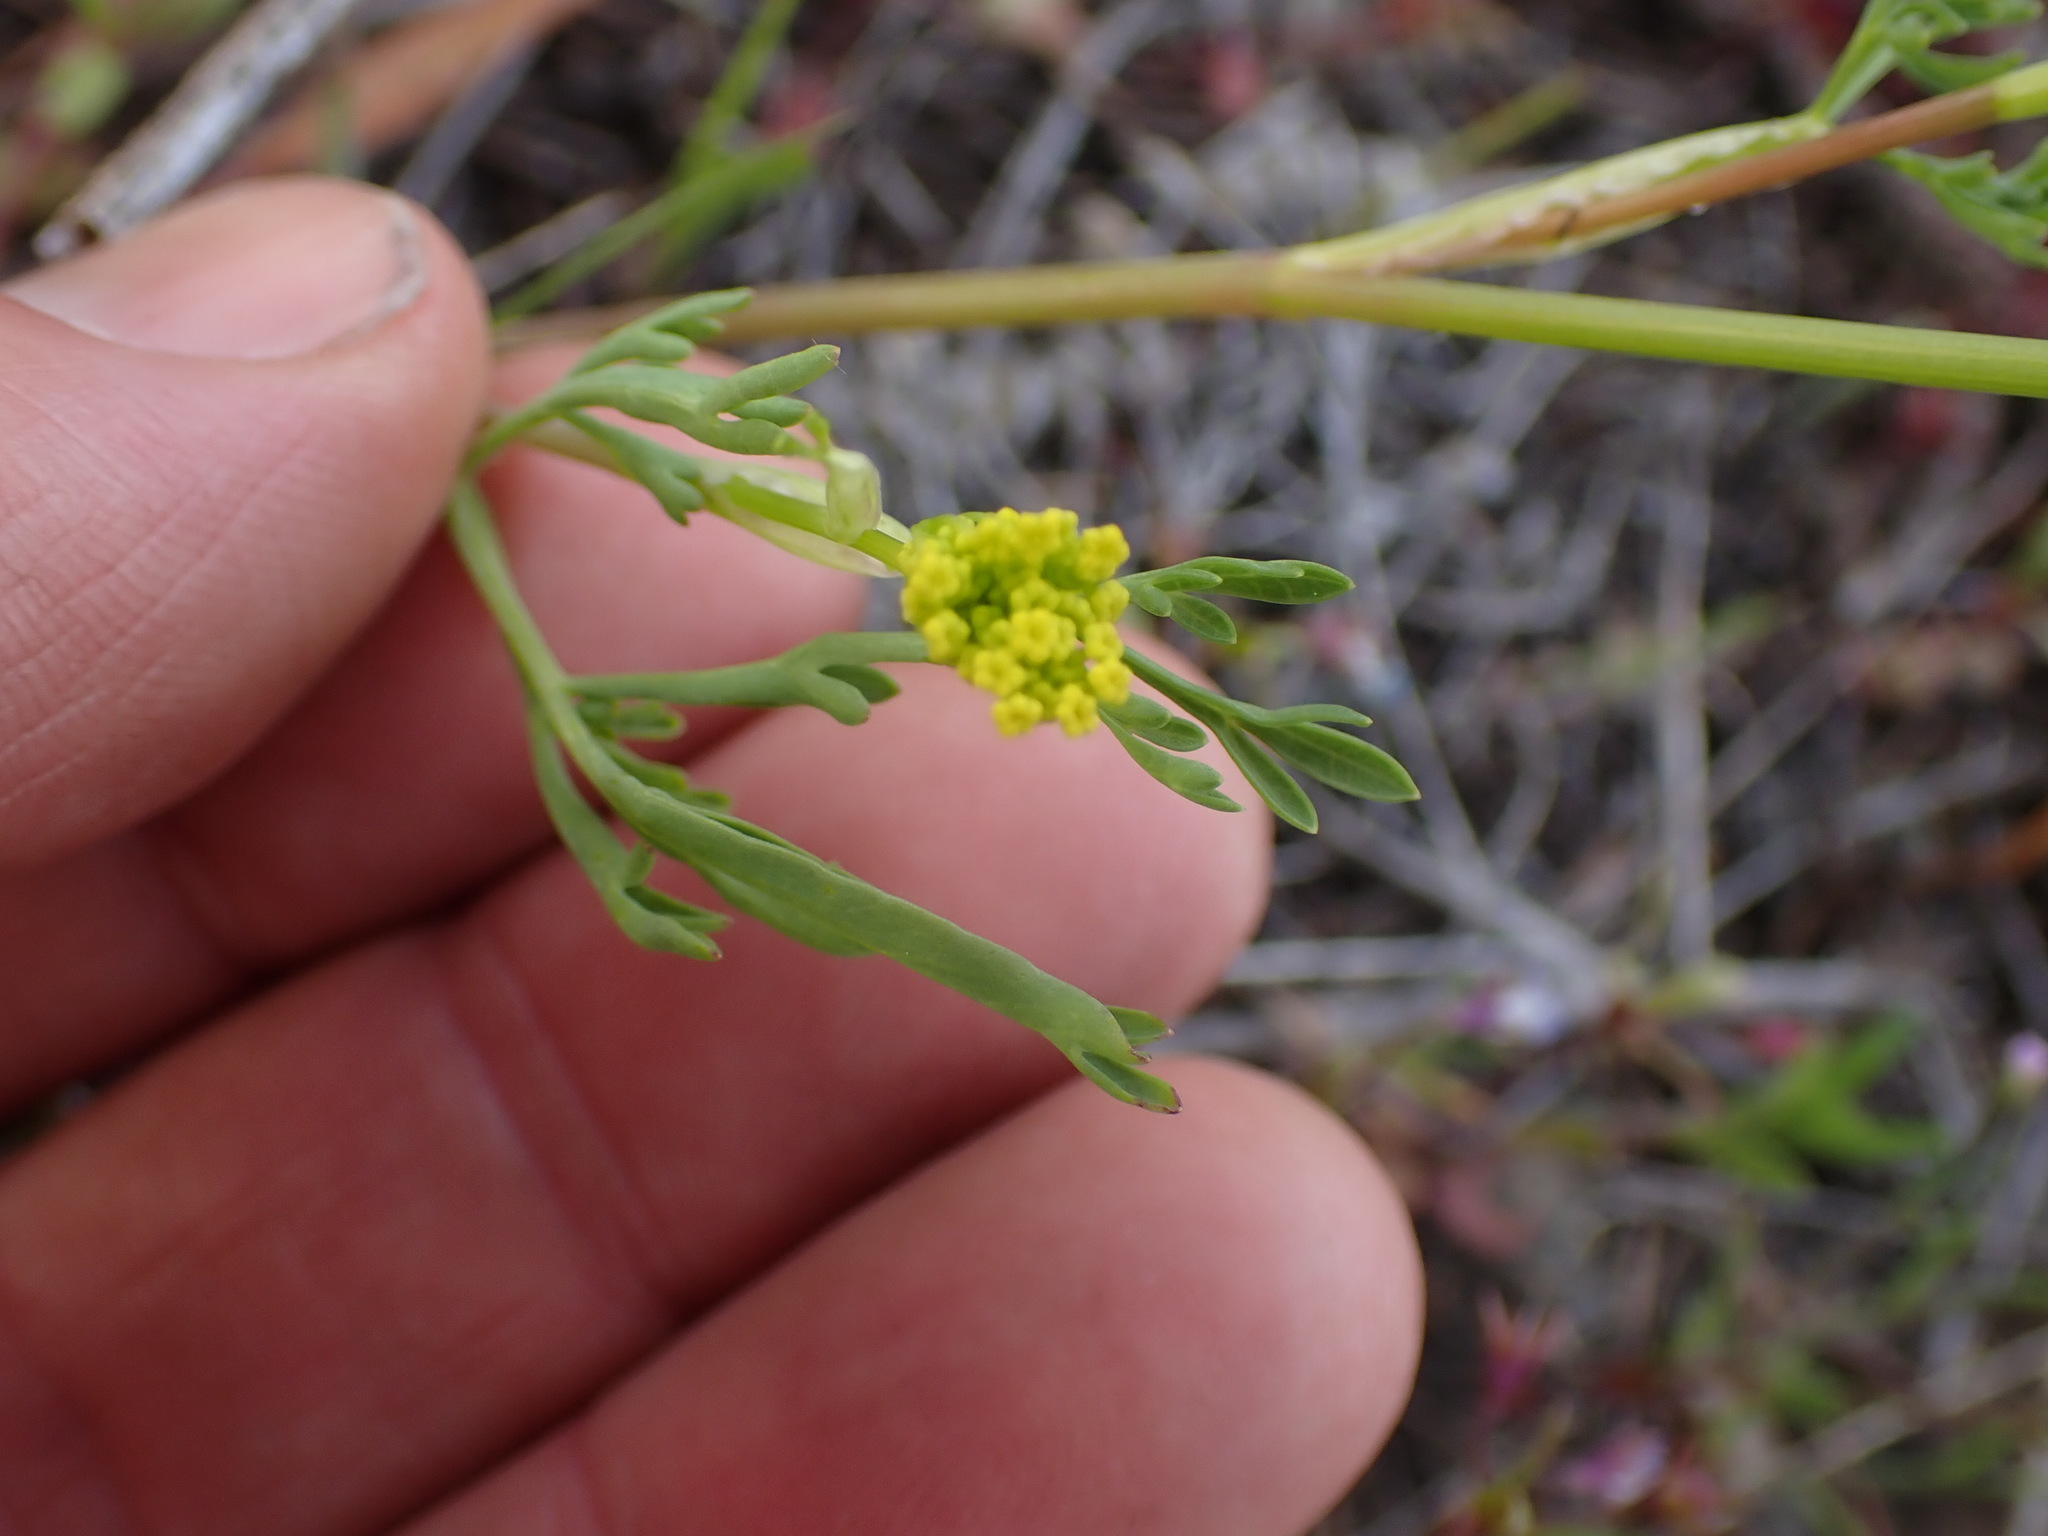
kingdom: Plantae
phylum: Tracheophyta
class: Magnoliopsida
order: Apiales
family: Apiaceae
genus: Lomatium
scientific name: Lomatium ambiguum
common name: Lacy lomatium
